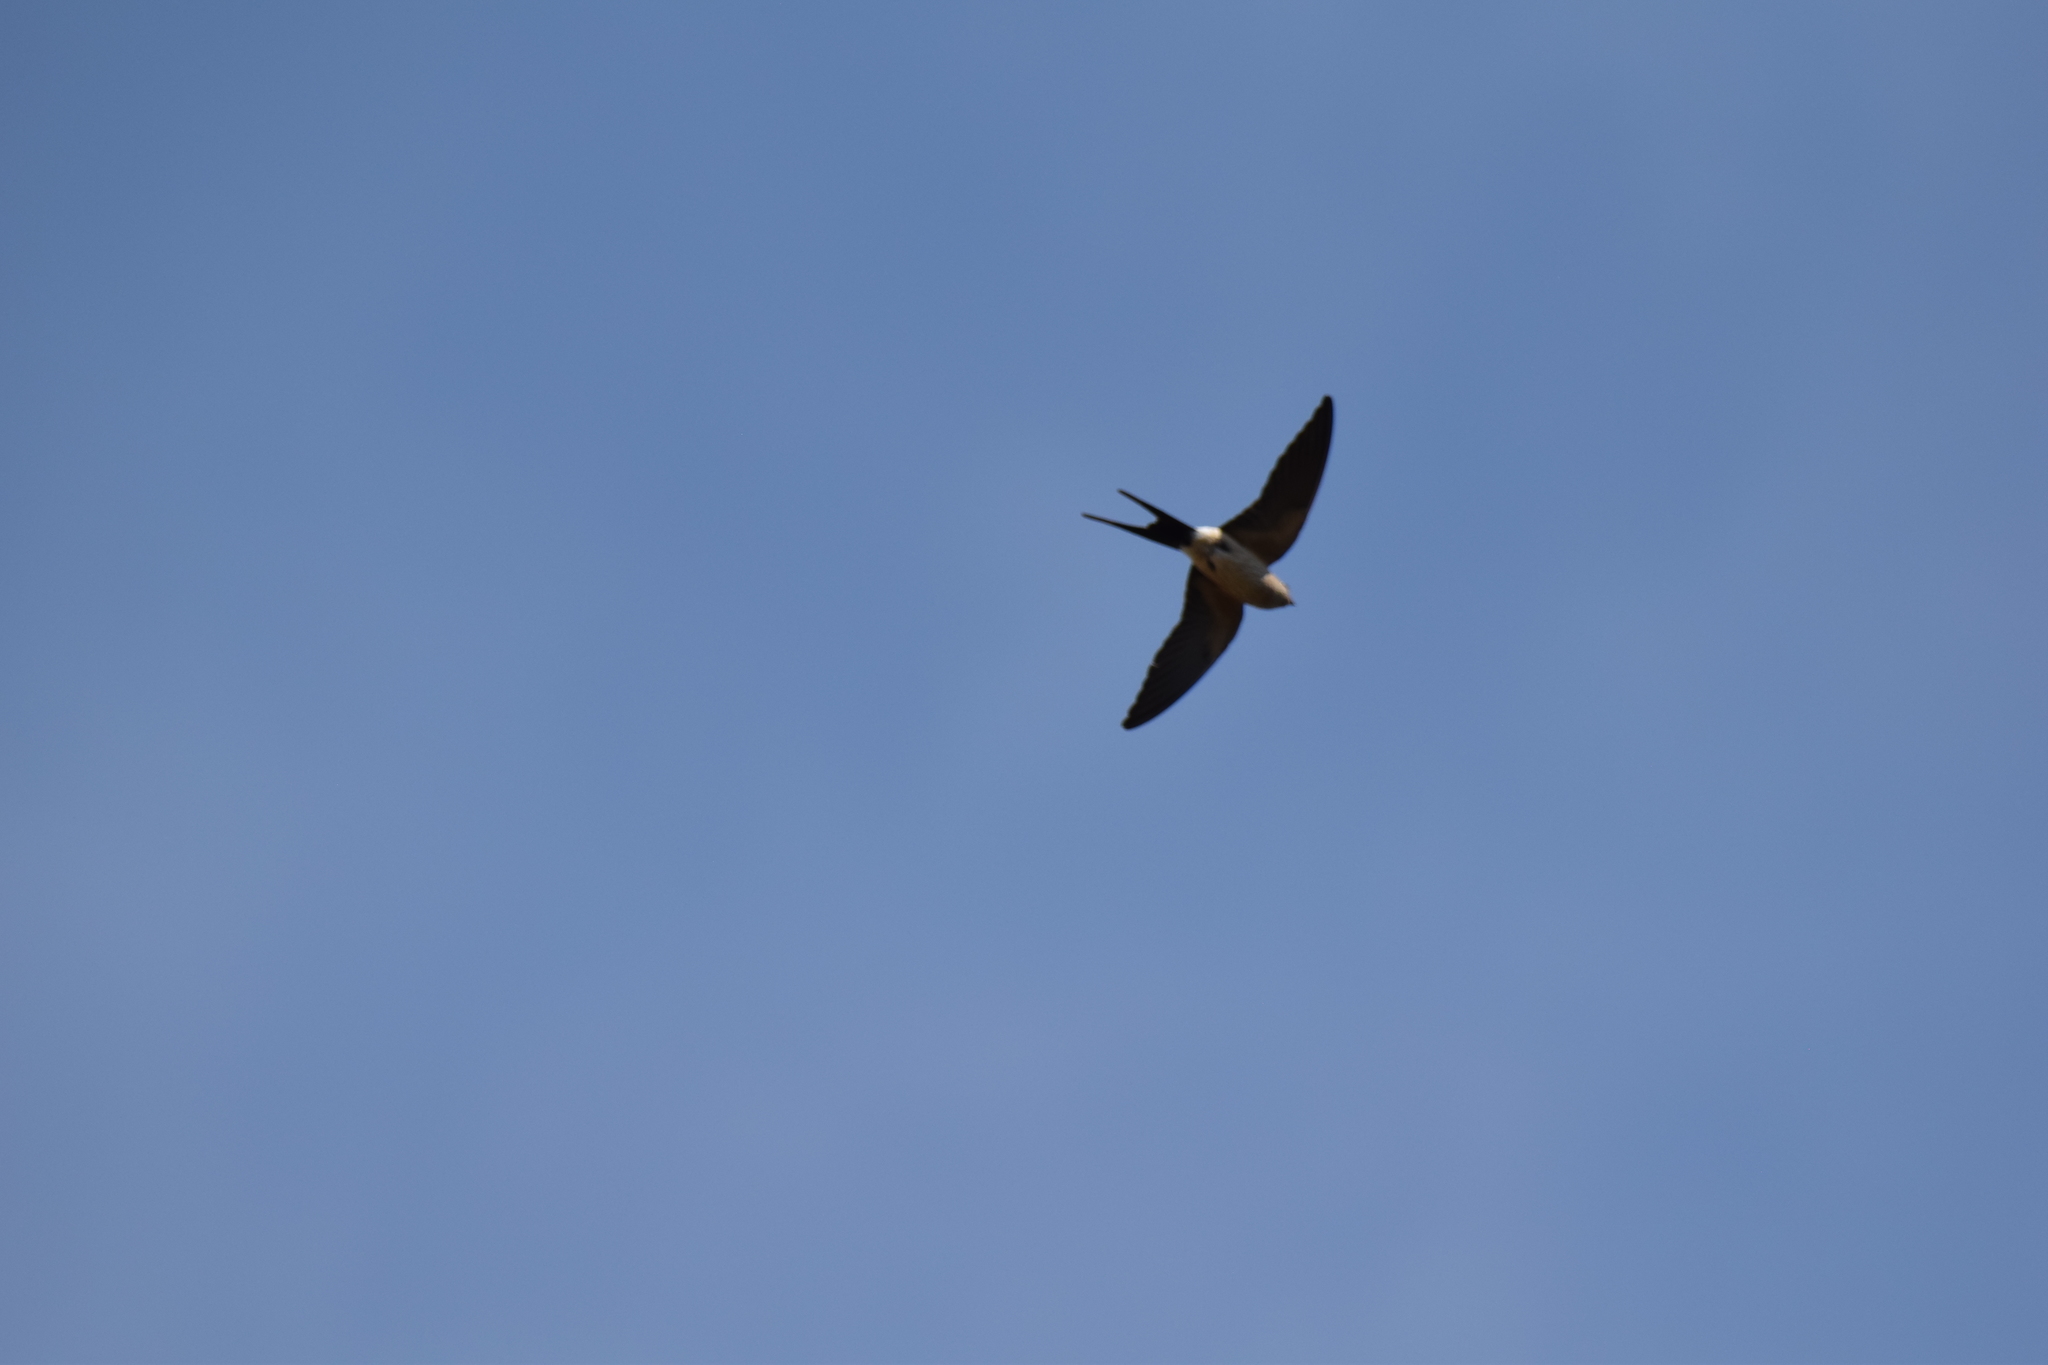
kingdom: Animalia
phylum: Chordata
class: Aves
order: Passeriformes
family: Hirundinidae
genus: Cecropis
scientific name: Cecropis daurica
